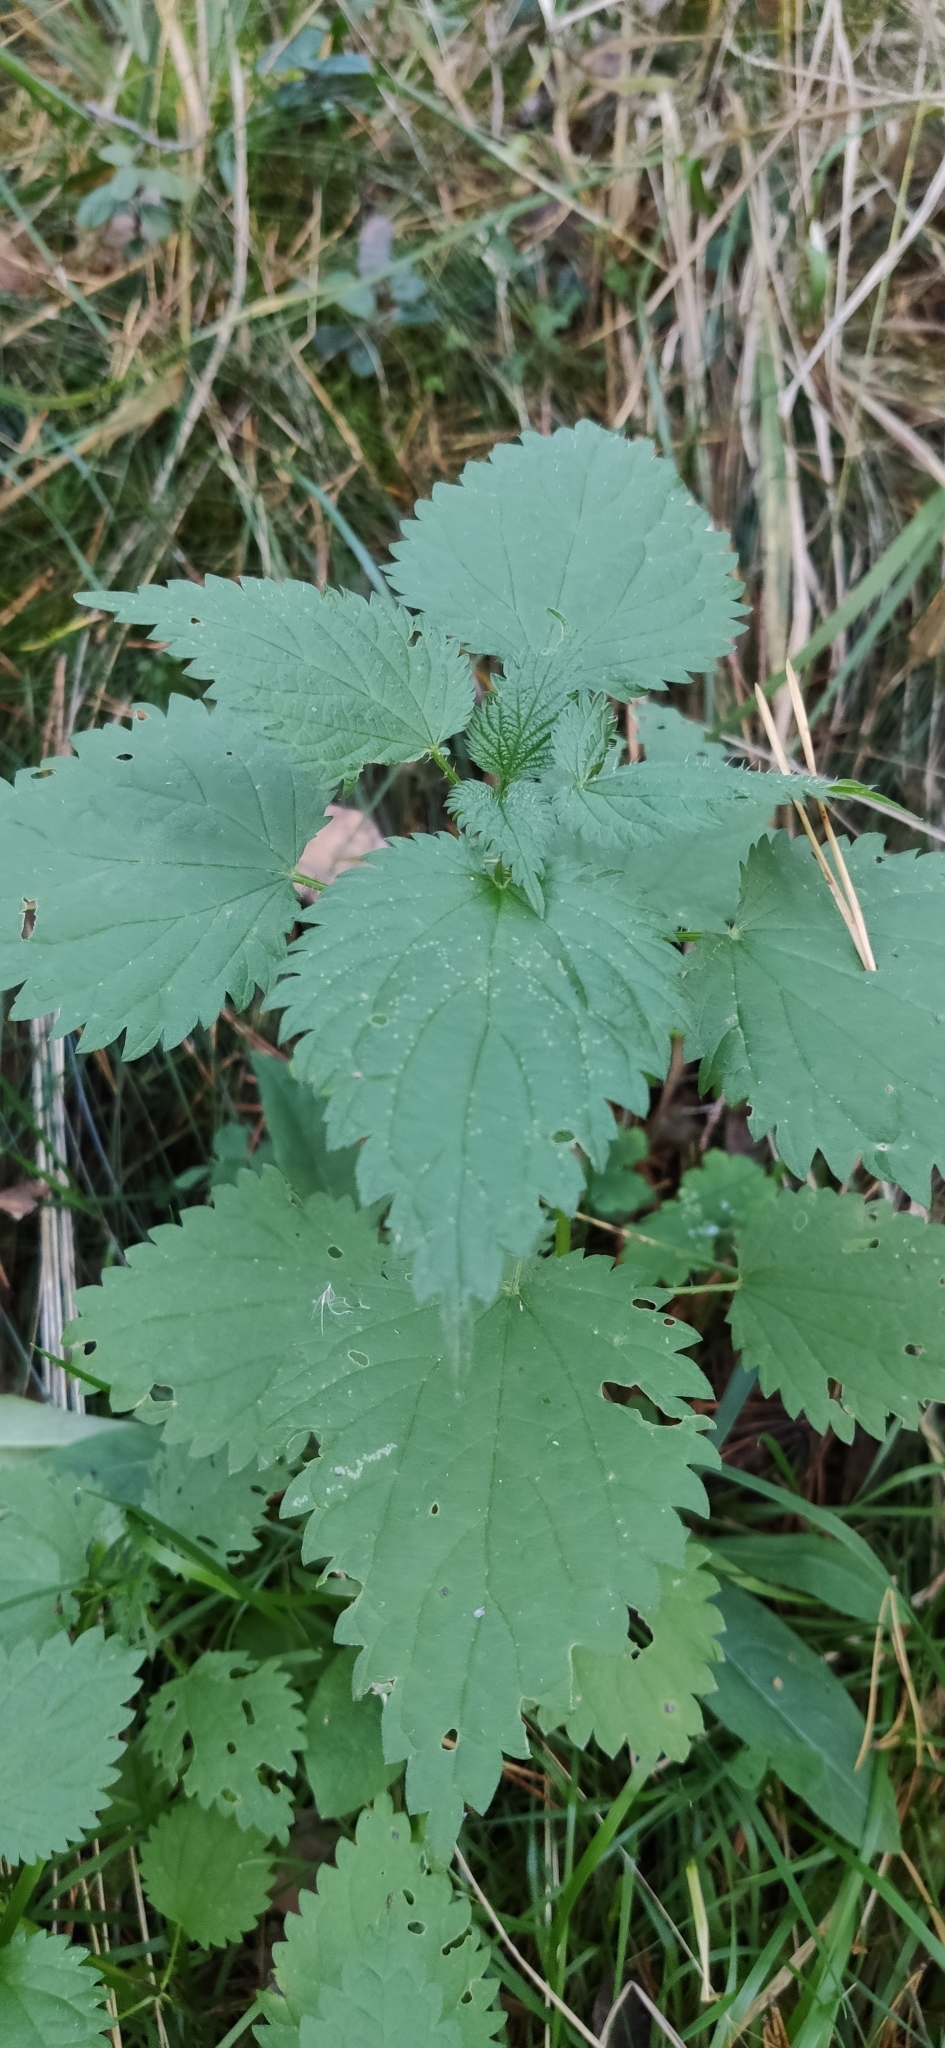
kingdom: Plantae
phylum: Tracheophyta
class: Magnoliopsida
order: Rosales
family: Urticaceae
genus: Urtica
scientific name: Urtica dioica
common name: Common nettle
